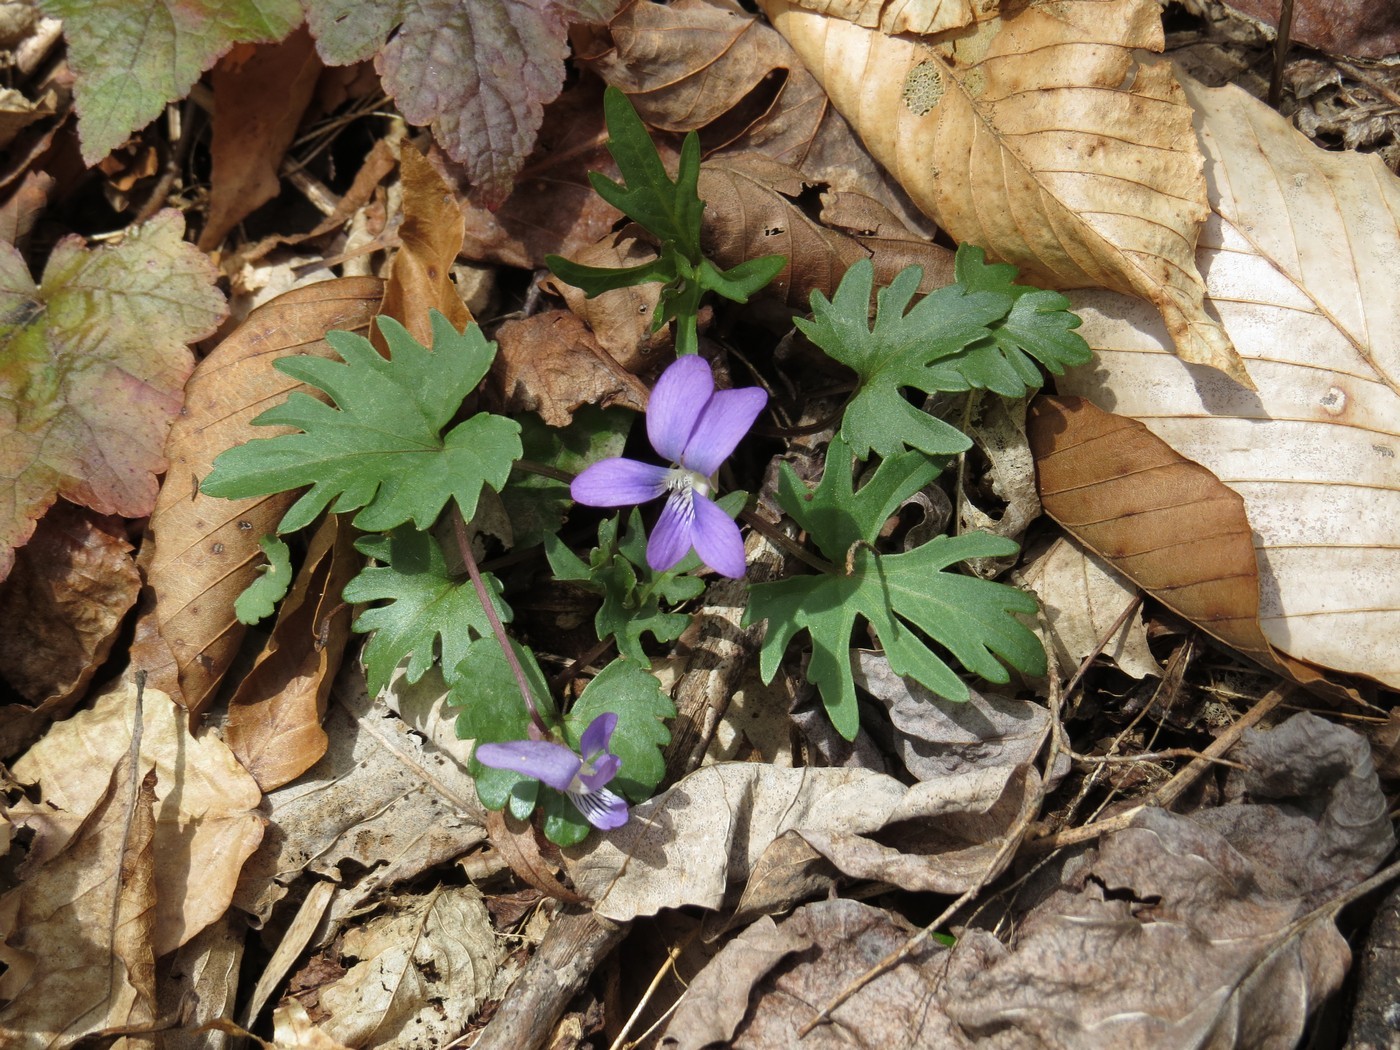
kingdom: Plantae
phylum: Tracheophyta
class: Magnoliopsida
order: Malpighiales
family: Violaceae
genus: Viola
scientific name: Viola palmata
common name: Early blue violet
